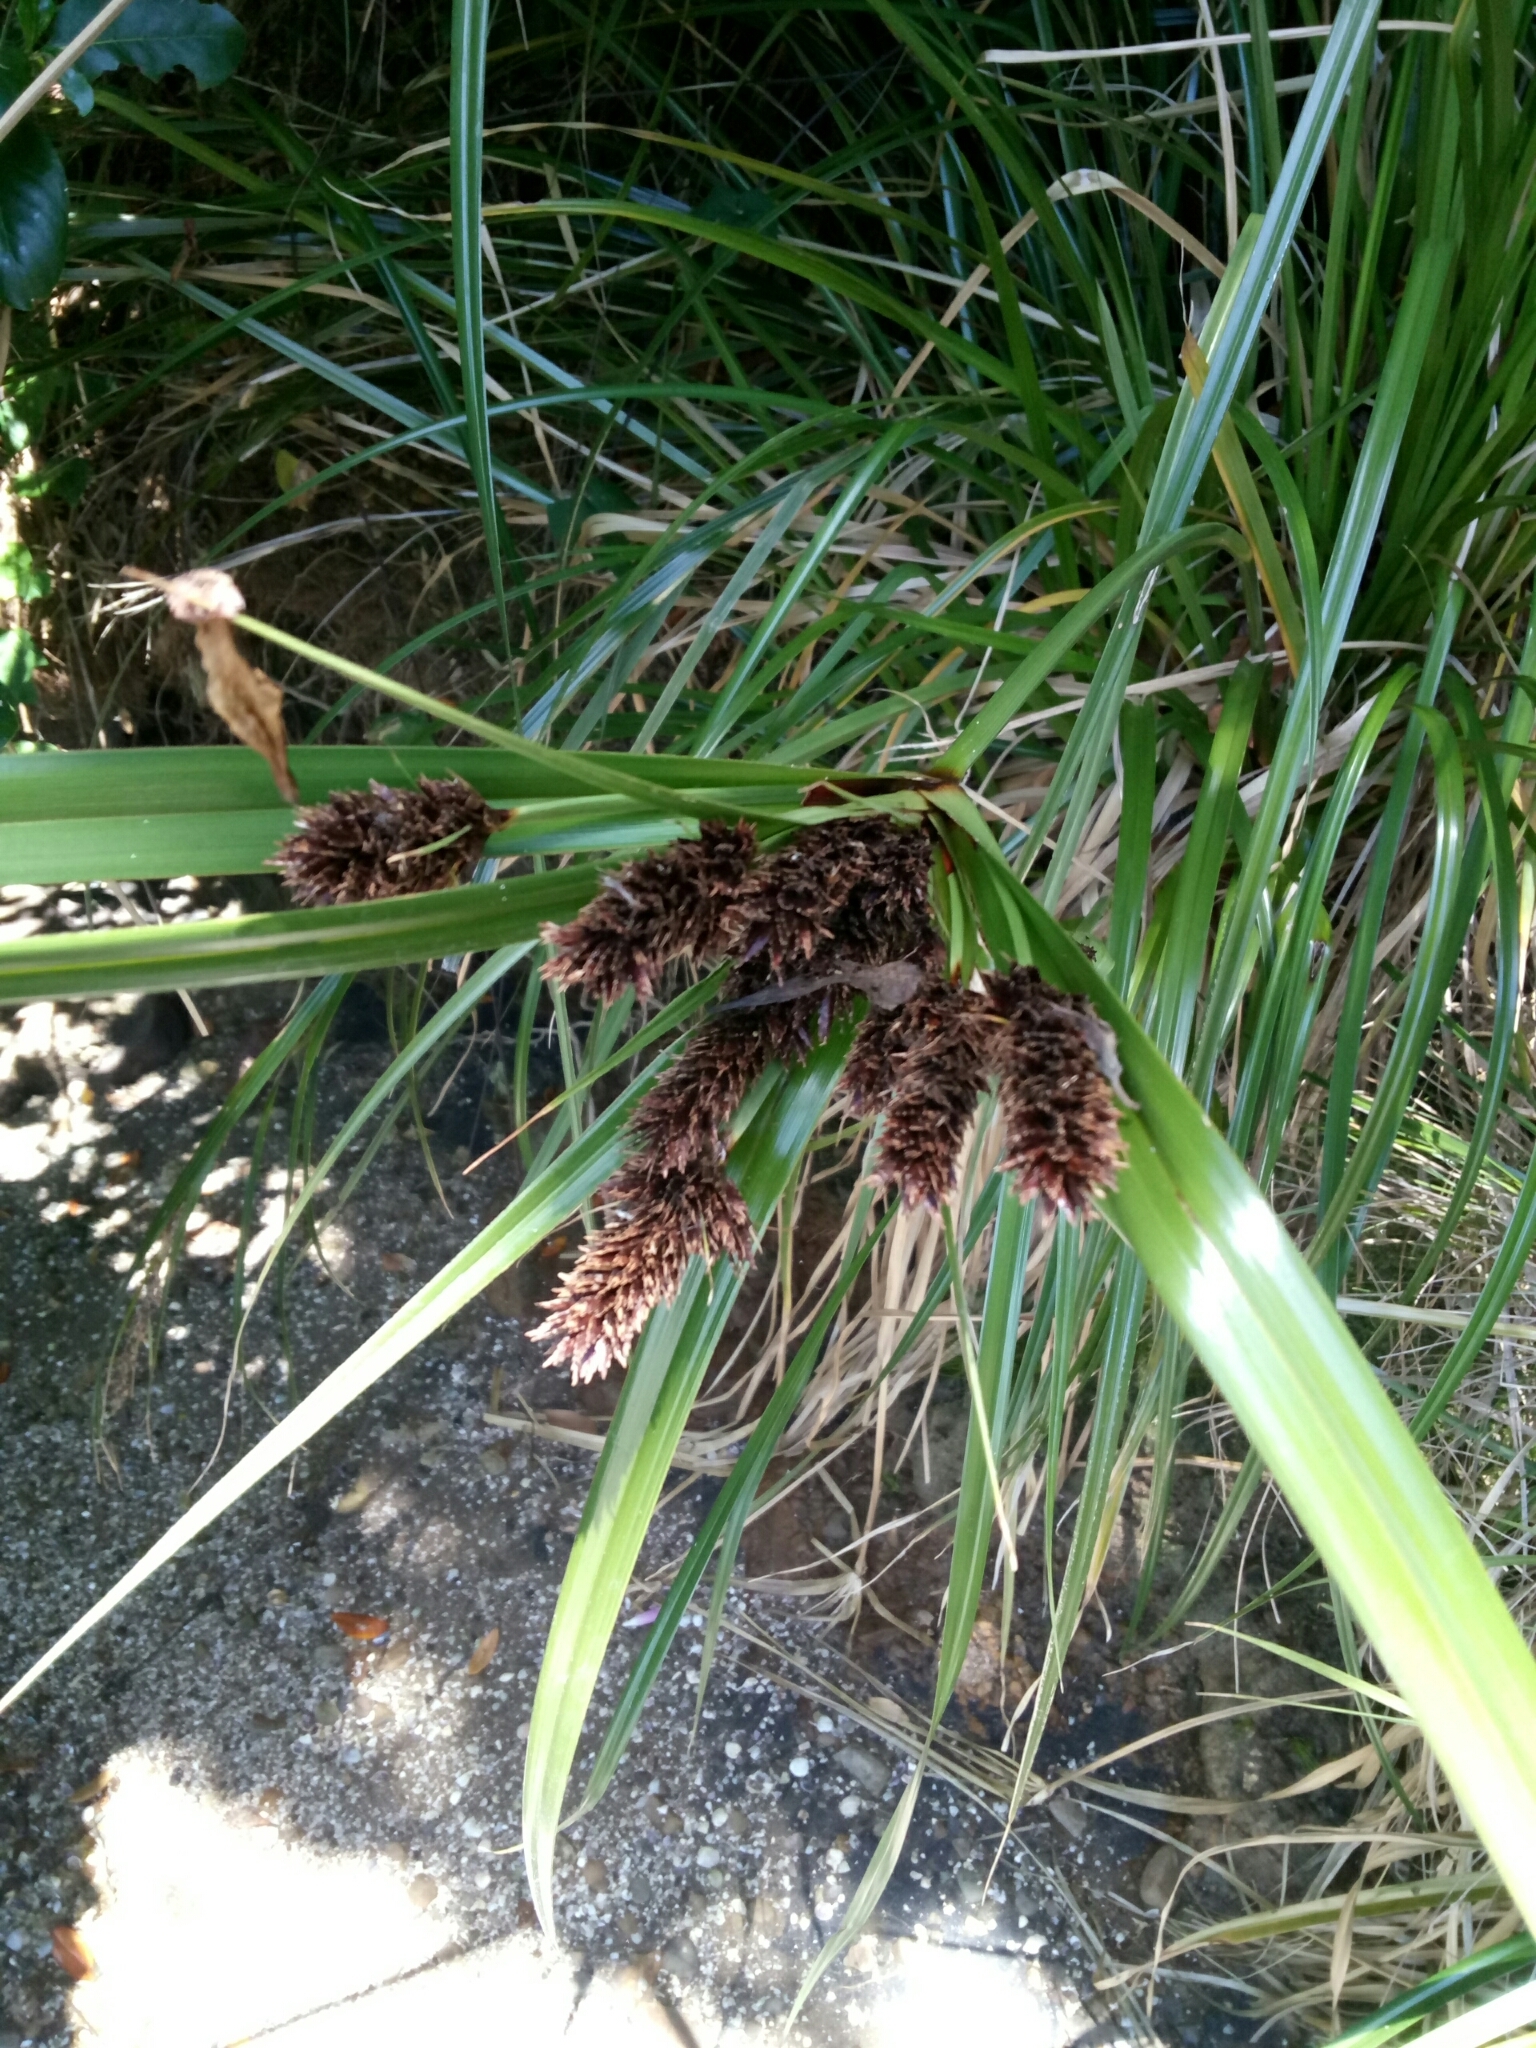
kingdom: Plantae
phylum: Tracheophyta
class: Liliopsida
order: Poales
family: Cyperaceae
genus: Cyperus
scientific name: Cyperus ustulatus
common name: Giant umbrella-sedge
